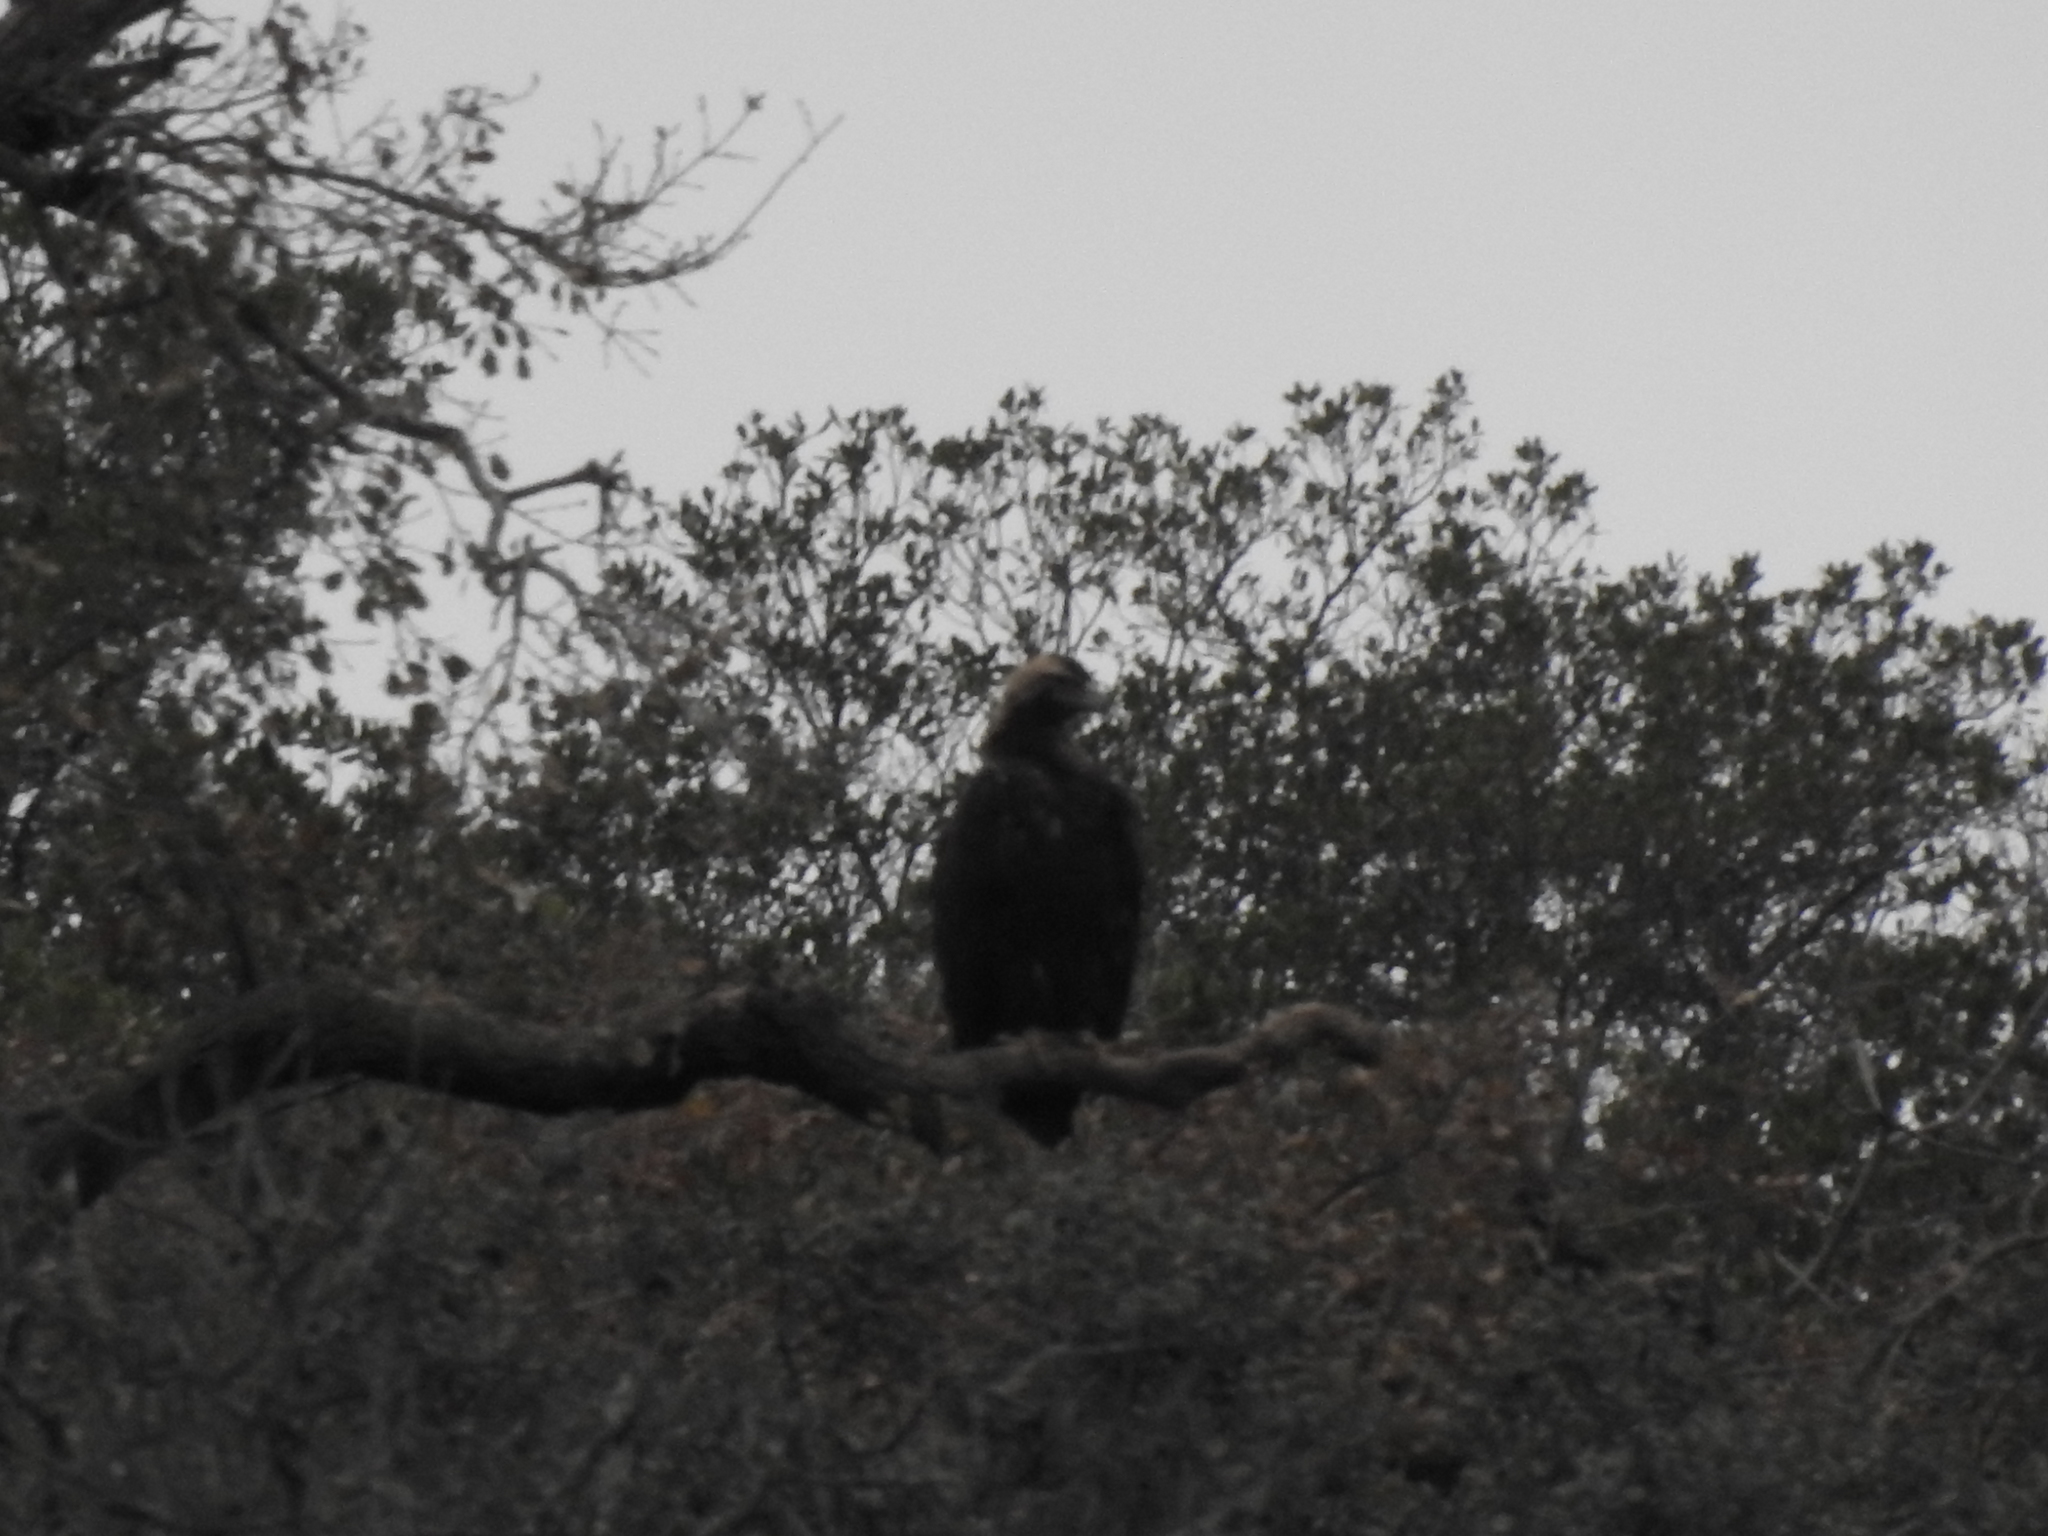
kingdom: Animalia
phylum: Chordata
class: Aves
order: Accipitriformes
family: Accipitridae
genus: Aquila
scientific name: Aquila chrysaetos
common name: Golden eagle
